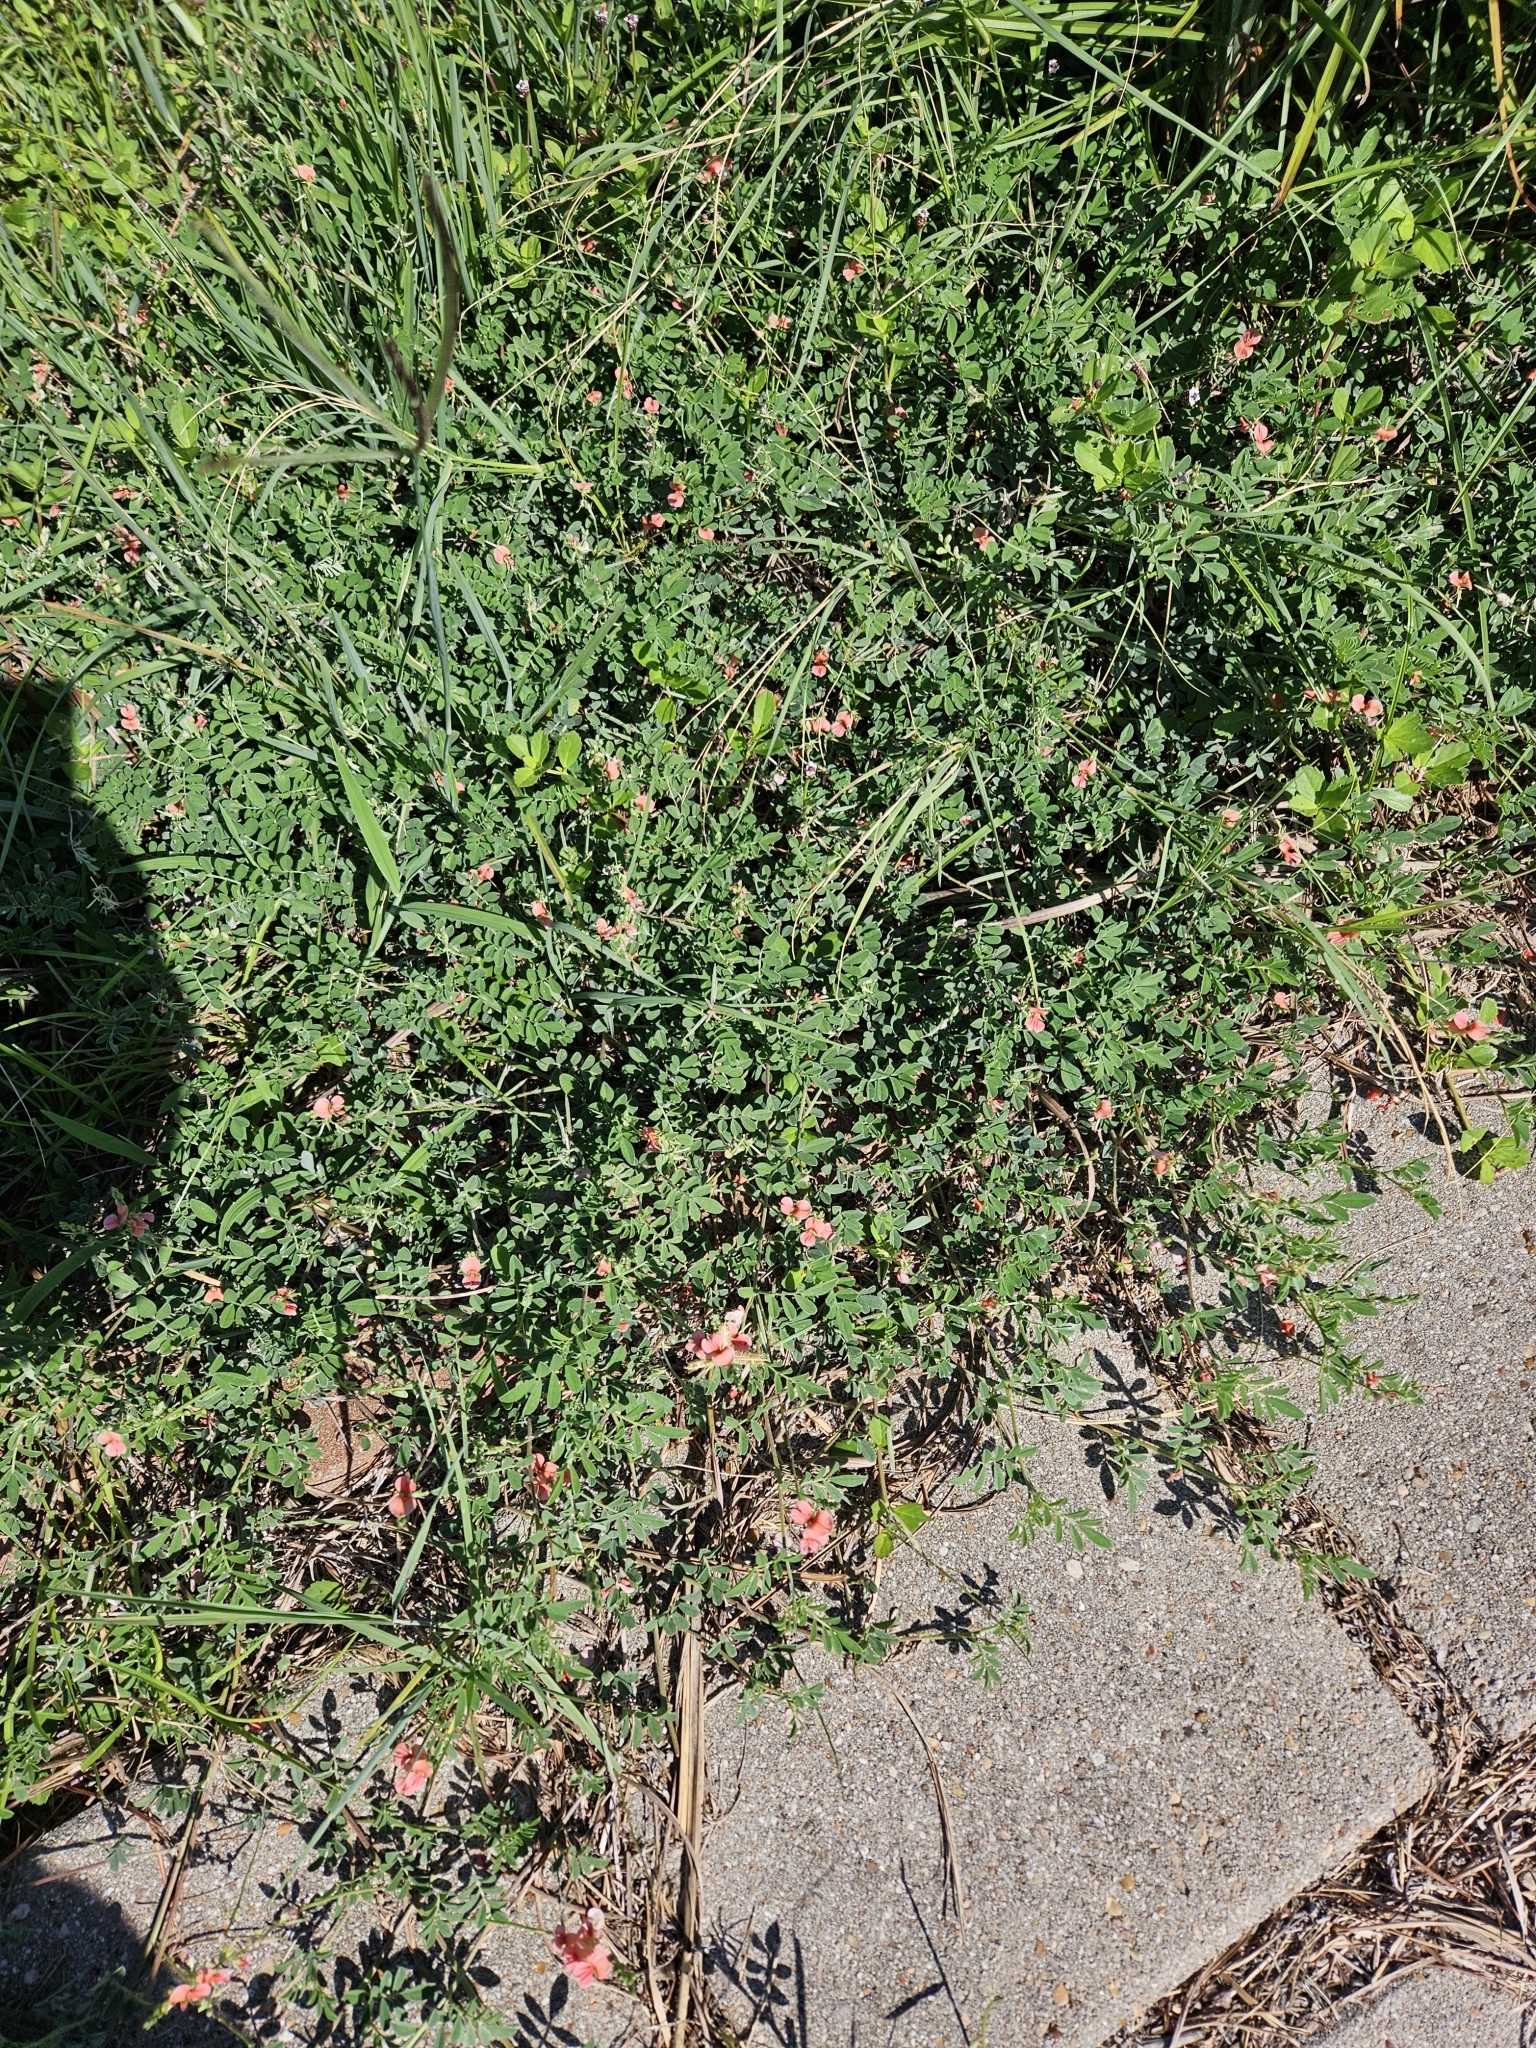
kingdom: Plantae
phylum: Tracheophyta
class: Magnoliopsida
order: Fabales
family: Fabaceae
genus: Indigofera
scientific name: Indigofera miniata
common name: Coast indigo
